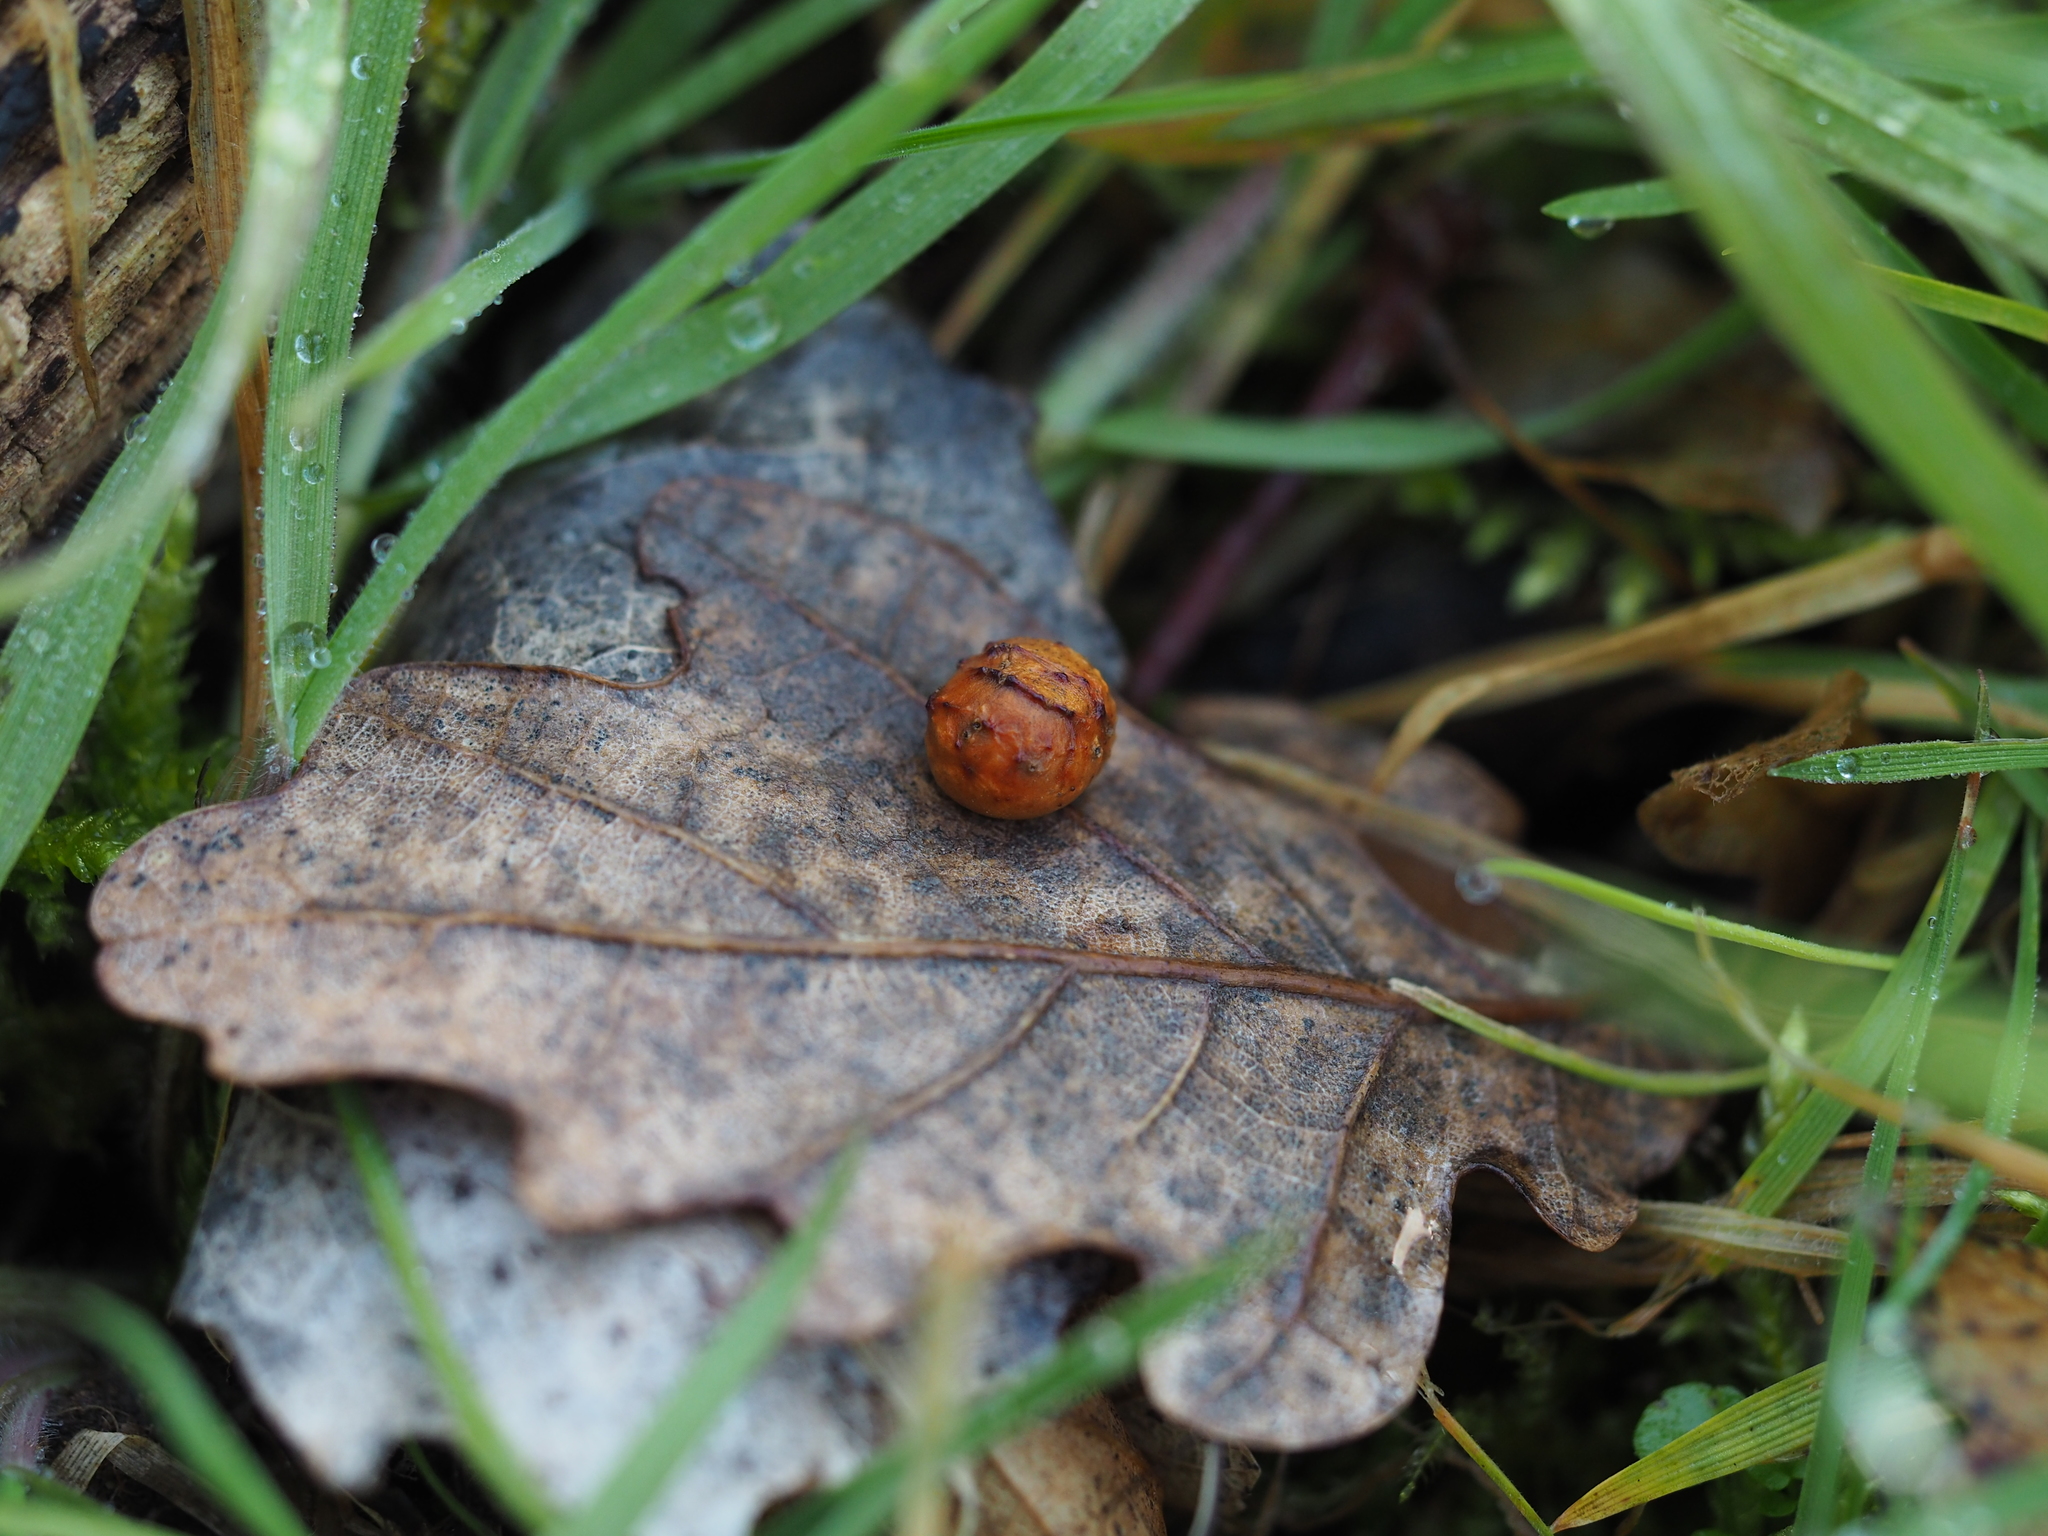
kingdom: Animalia
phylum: Arthropoda
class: Insecta
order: Hymenoptera
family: Cynipidae
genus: Cynips
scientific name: Cynips longiventris
